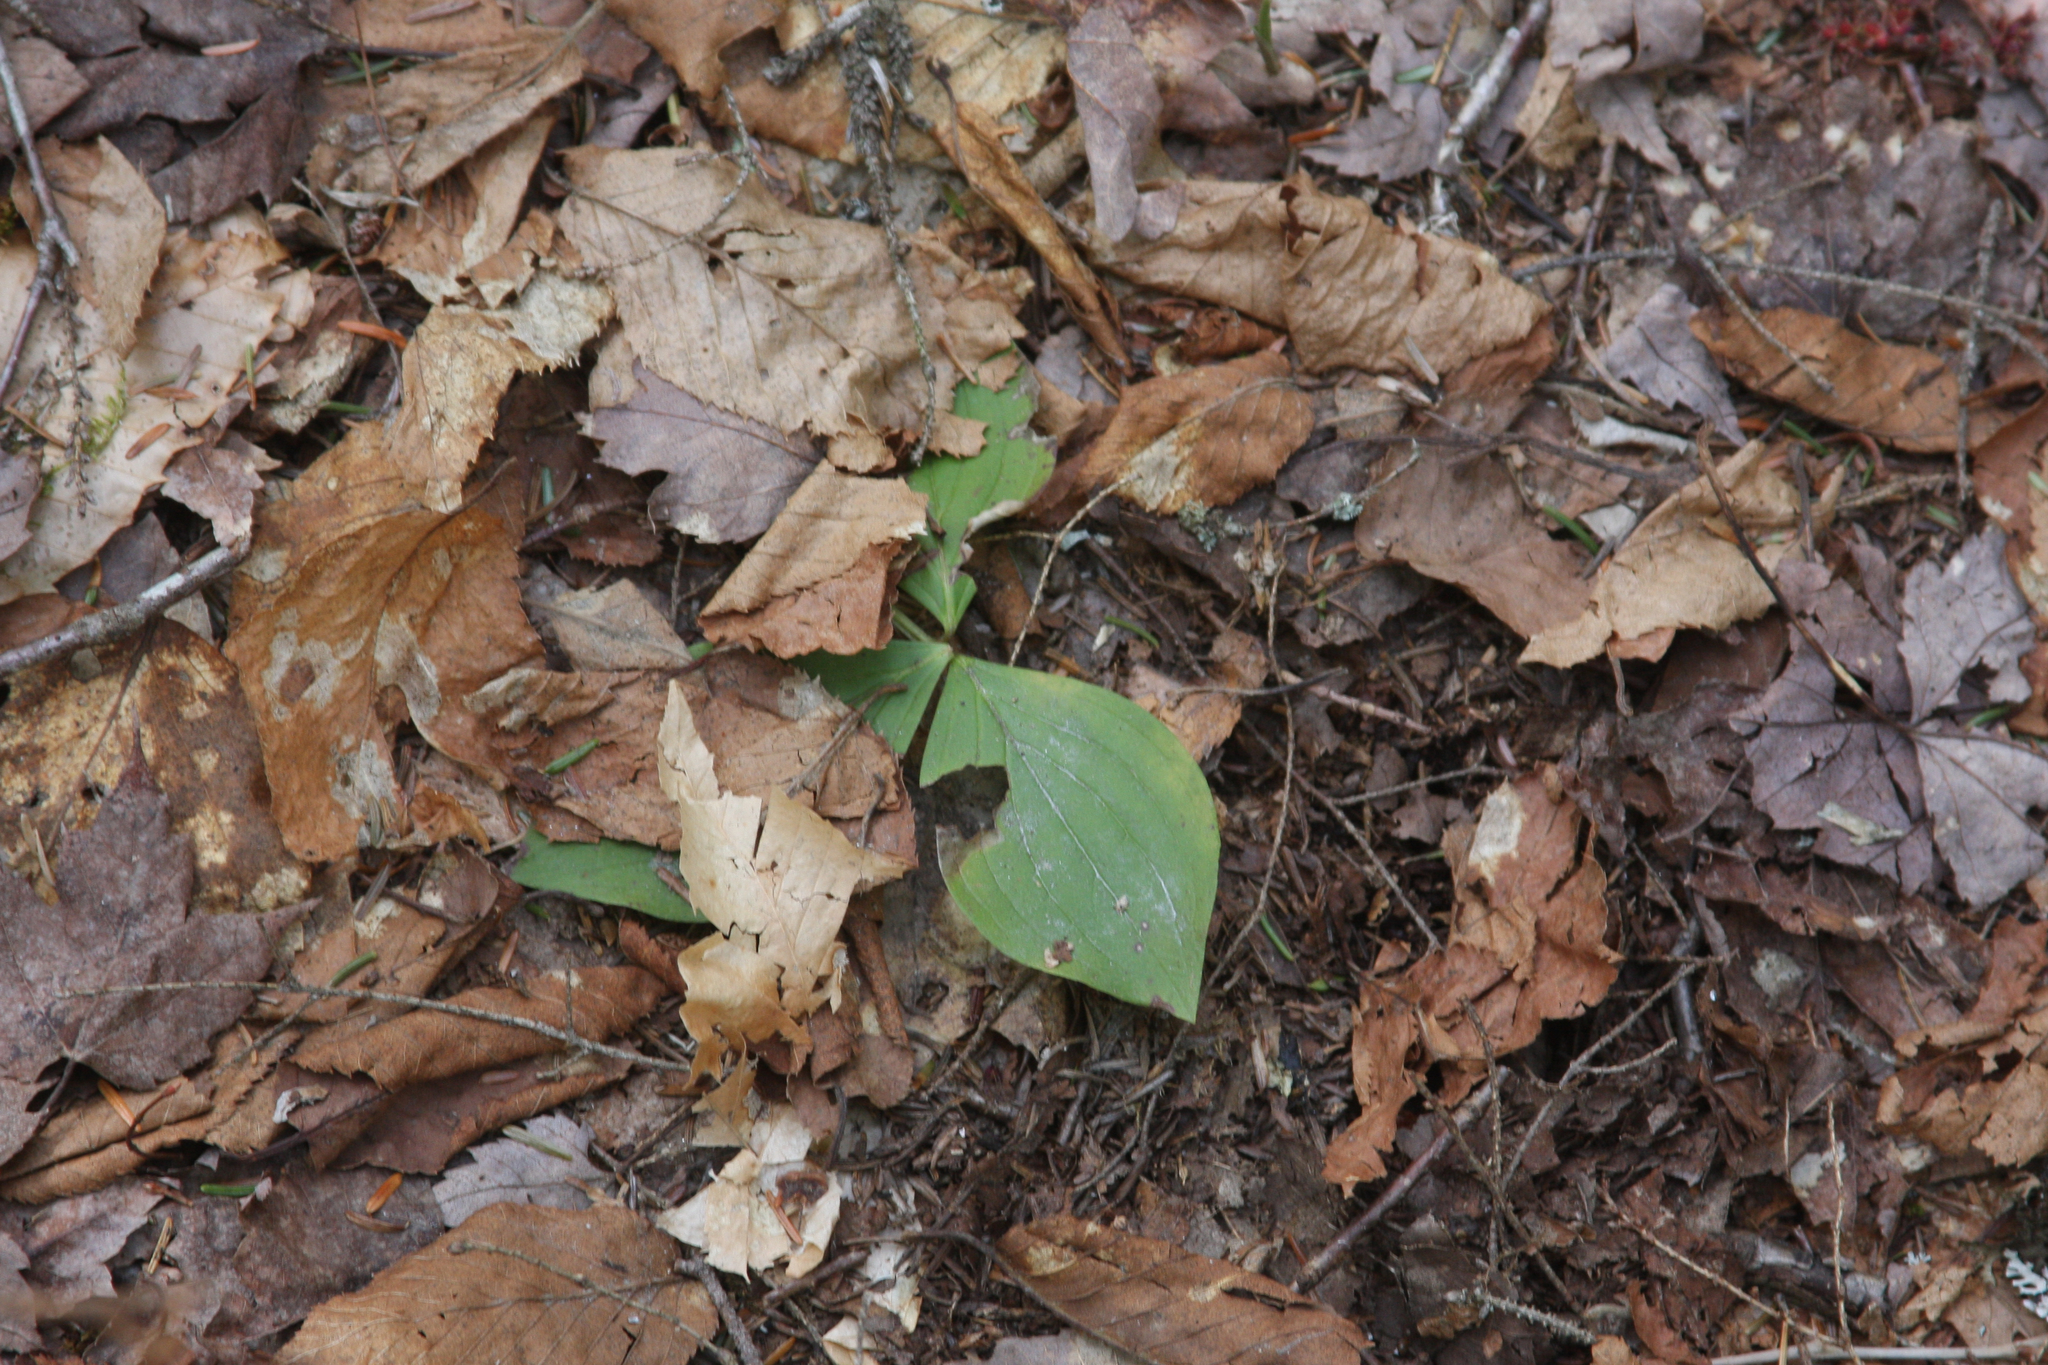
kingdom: Plantae
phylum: Tracheophyta
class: Magnoliopsida
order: Cornales
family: Cornaceae
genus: Cornus
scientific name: Cornus canadensis
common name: Creeping dogwood
